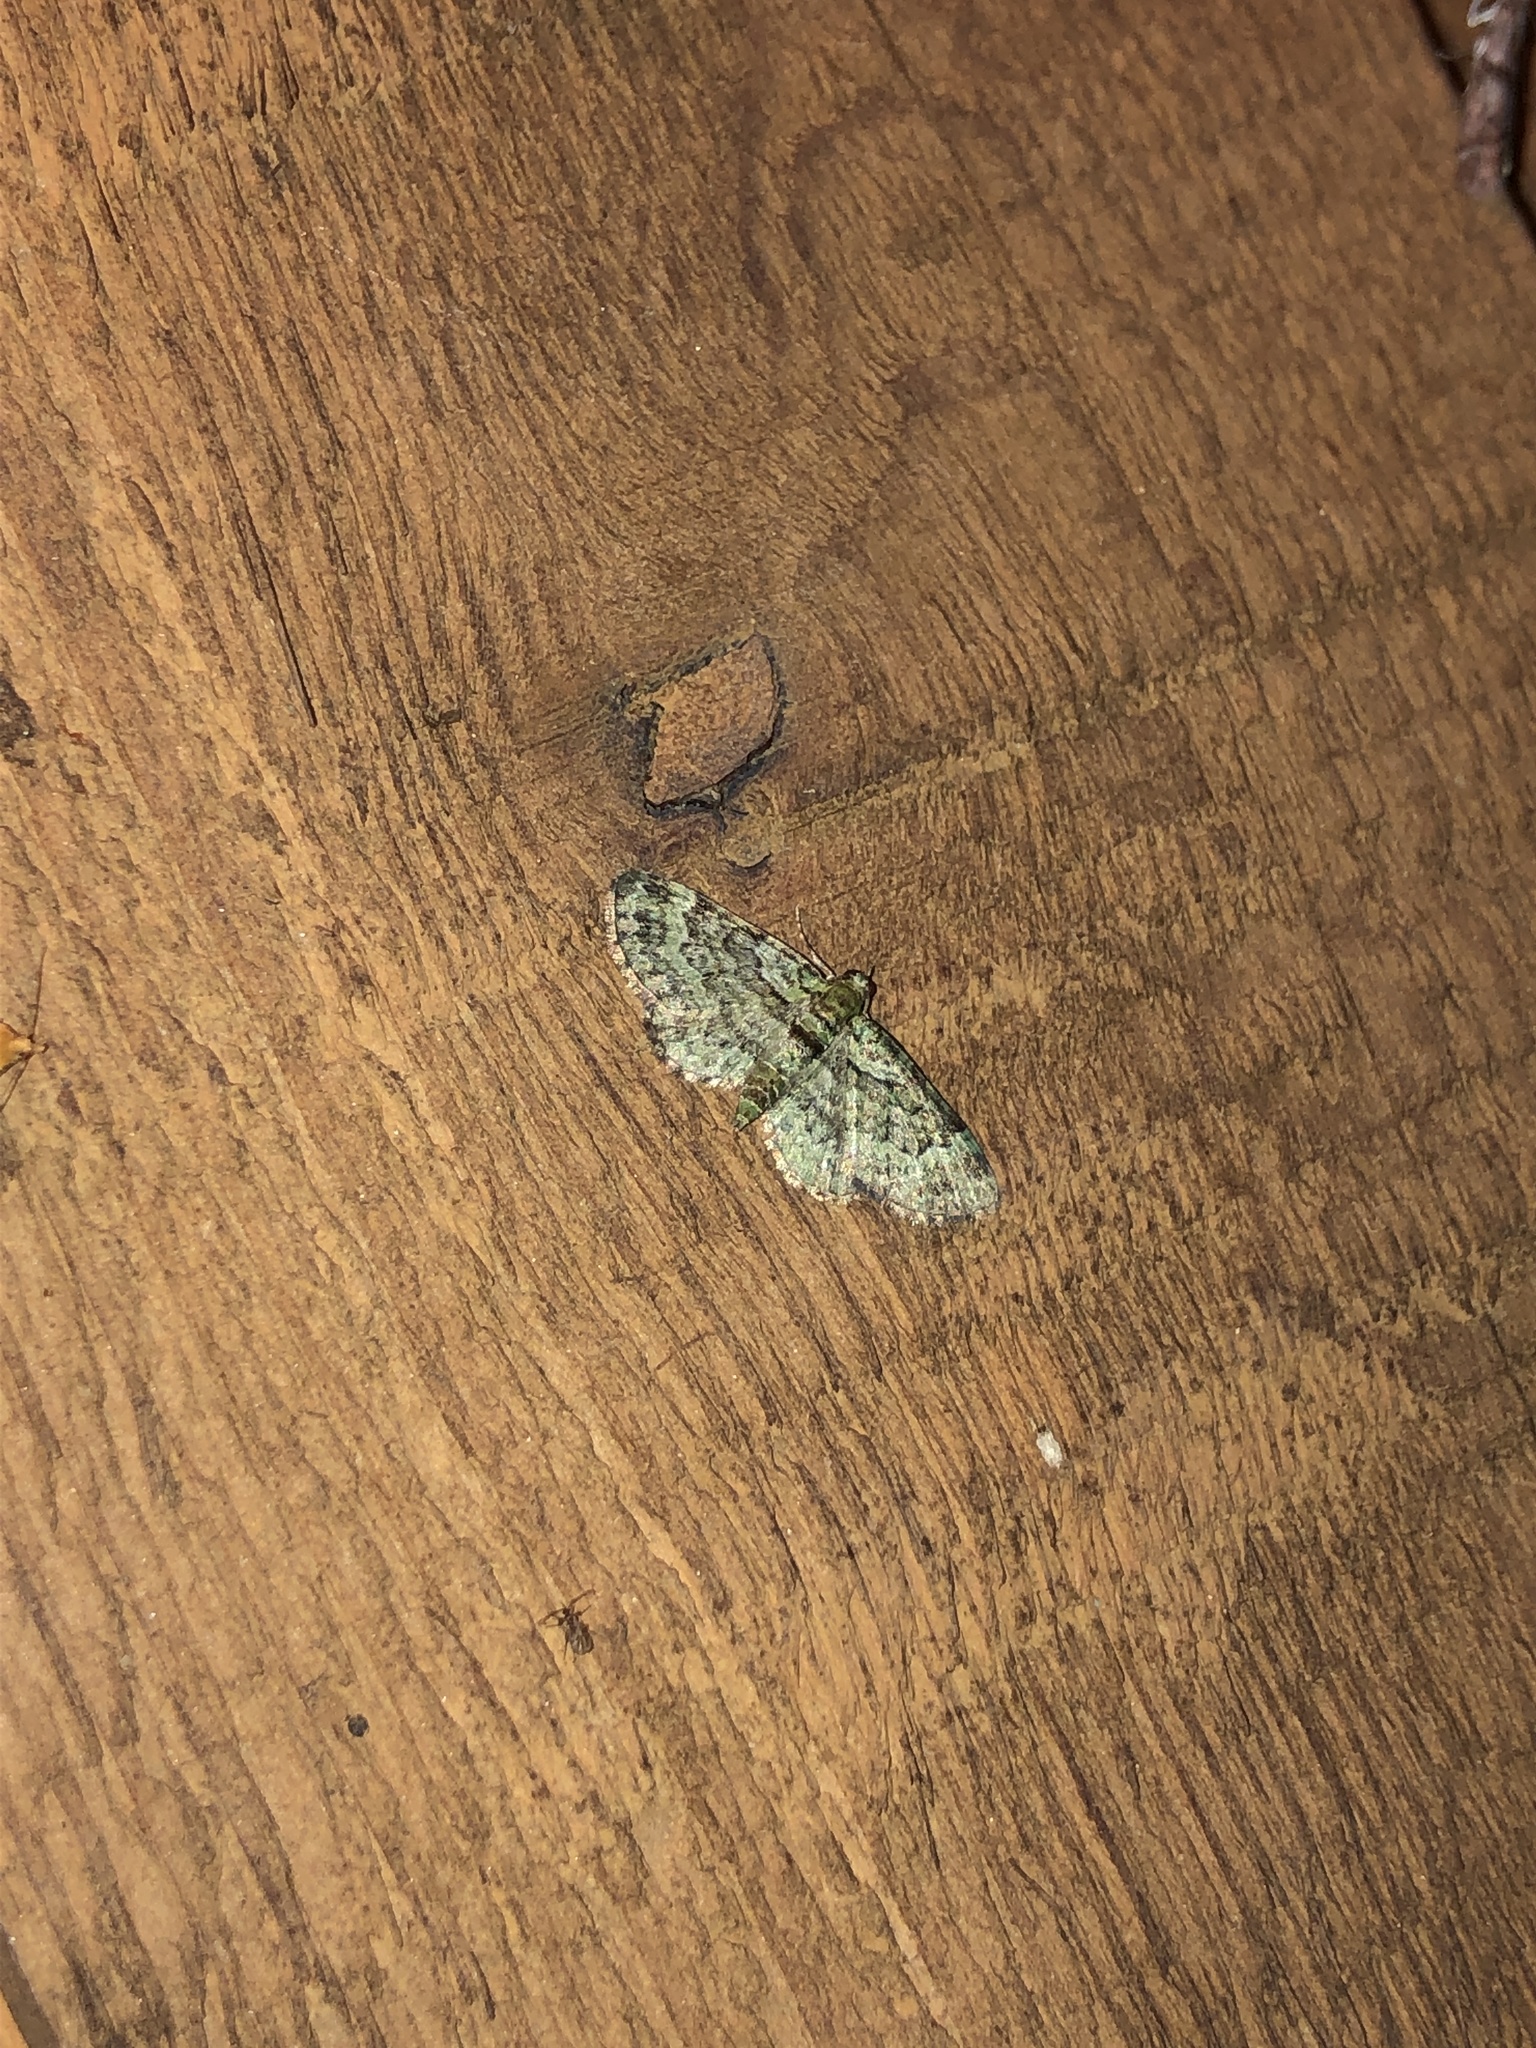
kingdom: Animalia
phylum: Arthropoda
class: Insecta
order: Lepidoptera
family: Geometridae
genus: Pasiphila
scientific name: Pasiphila rectangulata
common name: Green pug
